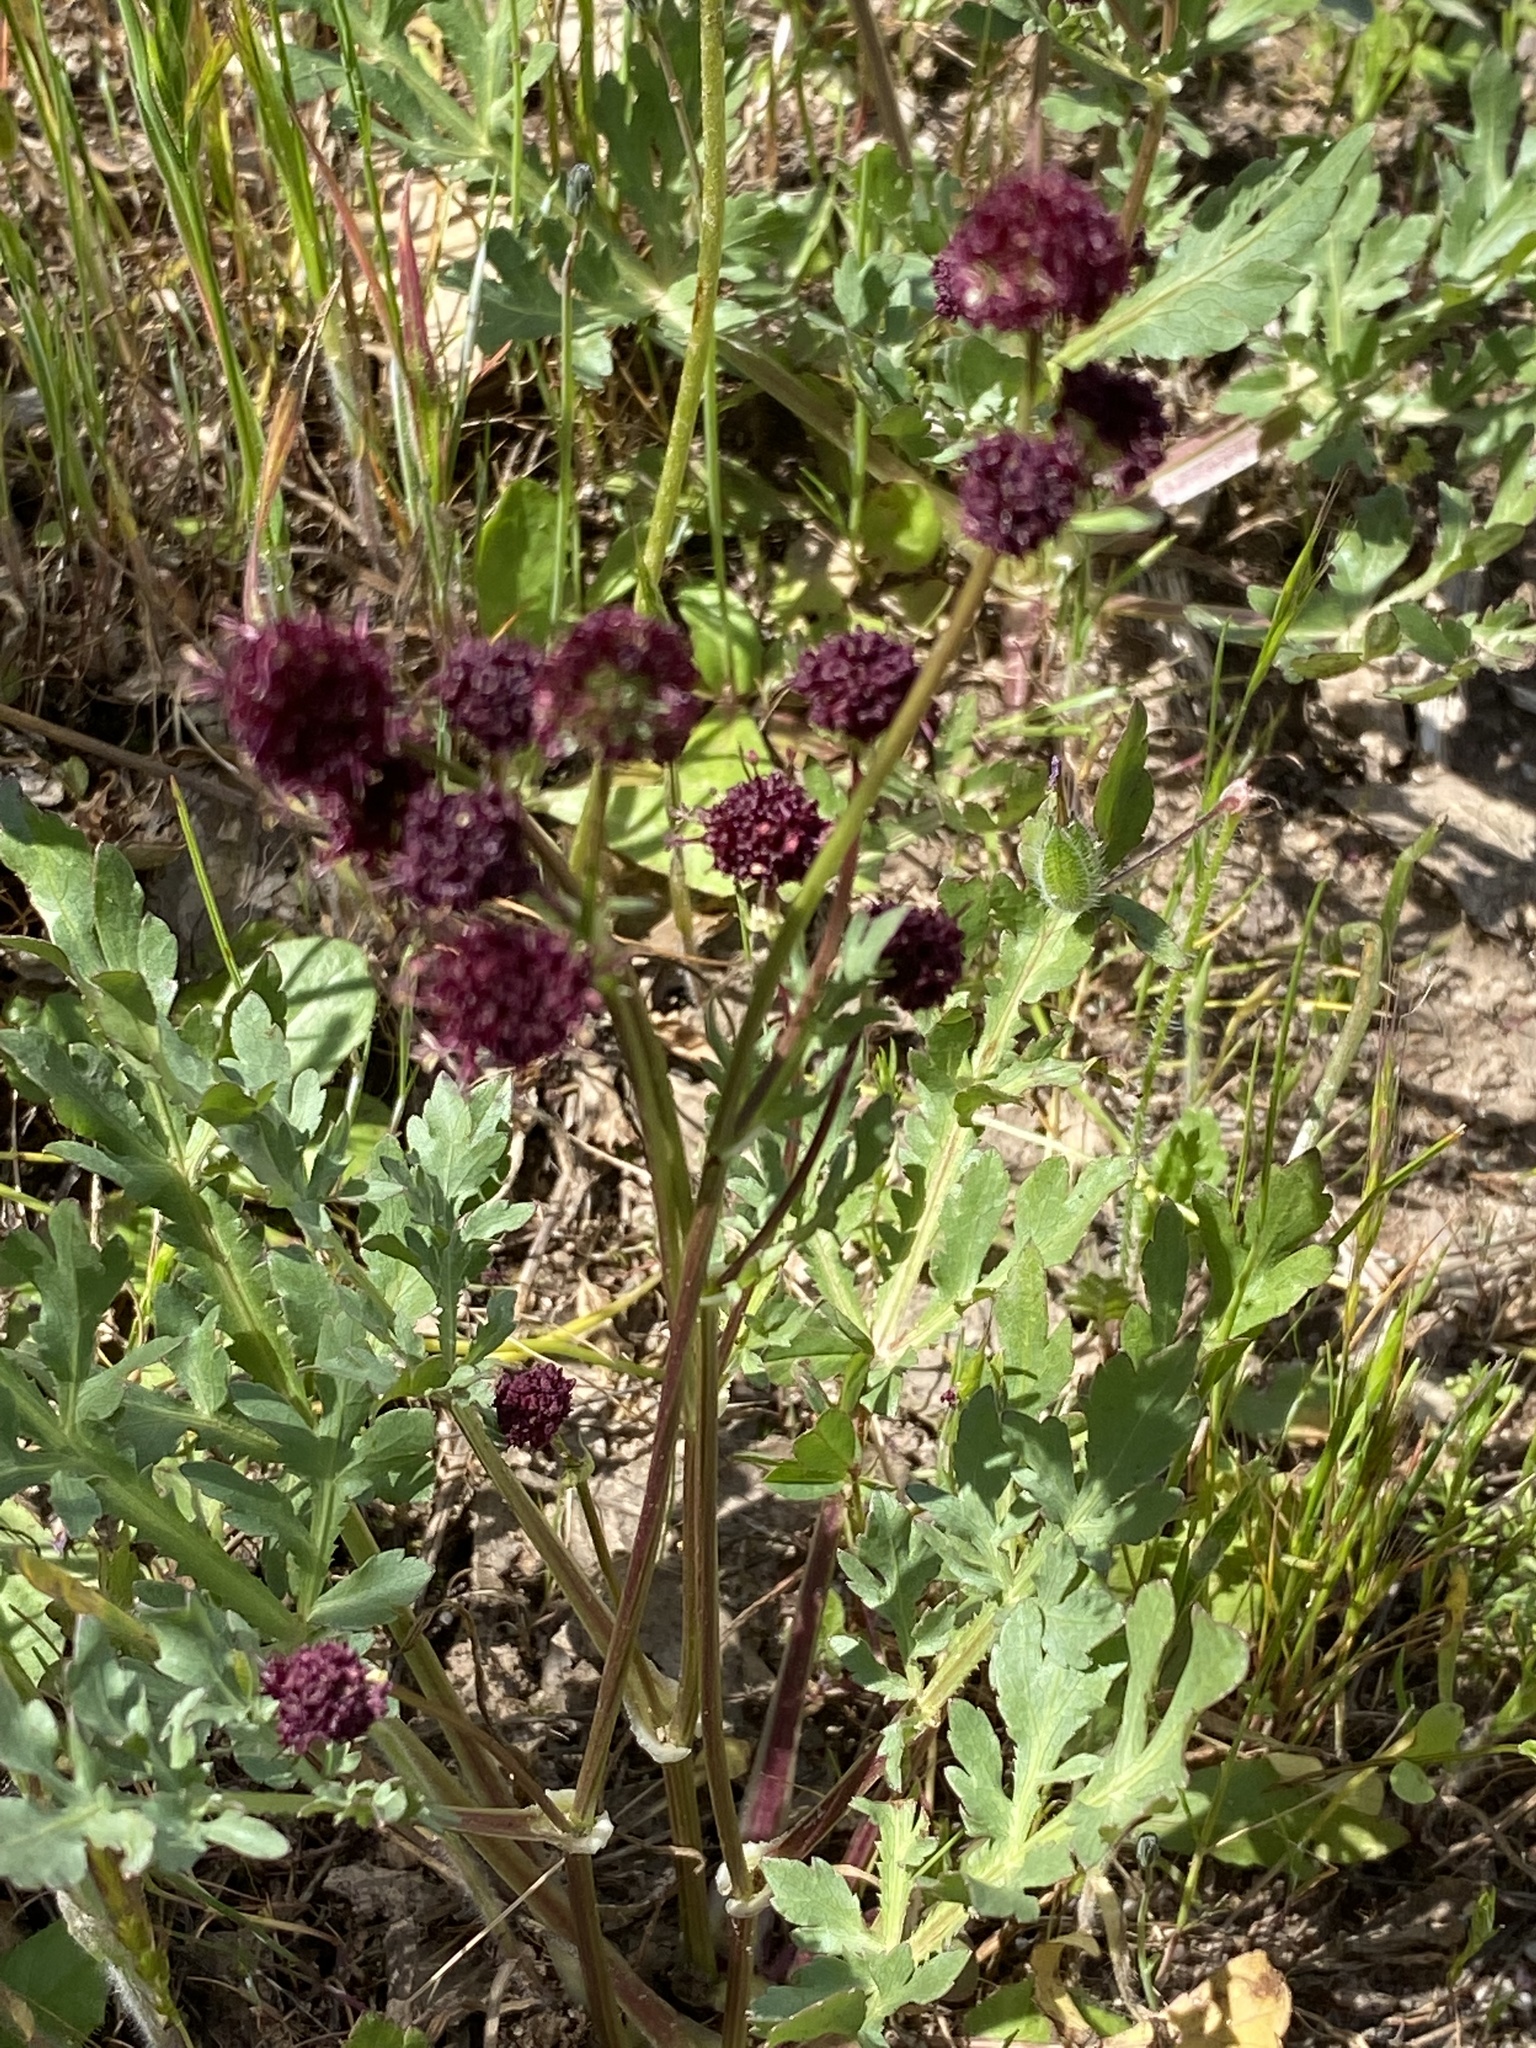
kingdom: Plantae
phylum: Tracheophyta
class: Magnoliopsida
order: Apiales
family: Apiaceae
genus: Sanicula
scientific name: Sanicula bipinnatifida
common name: Shoe-buttons
